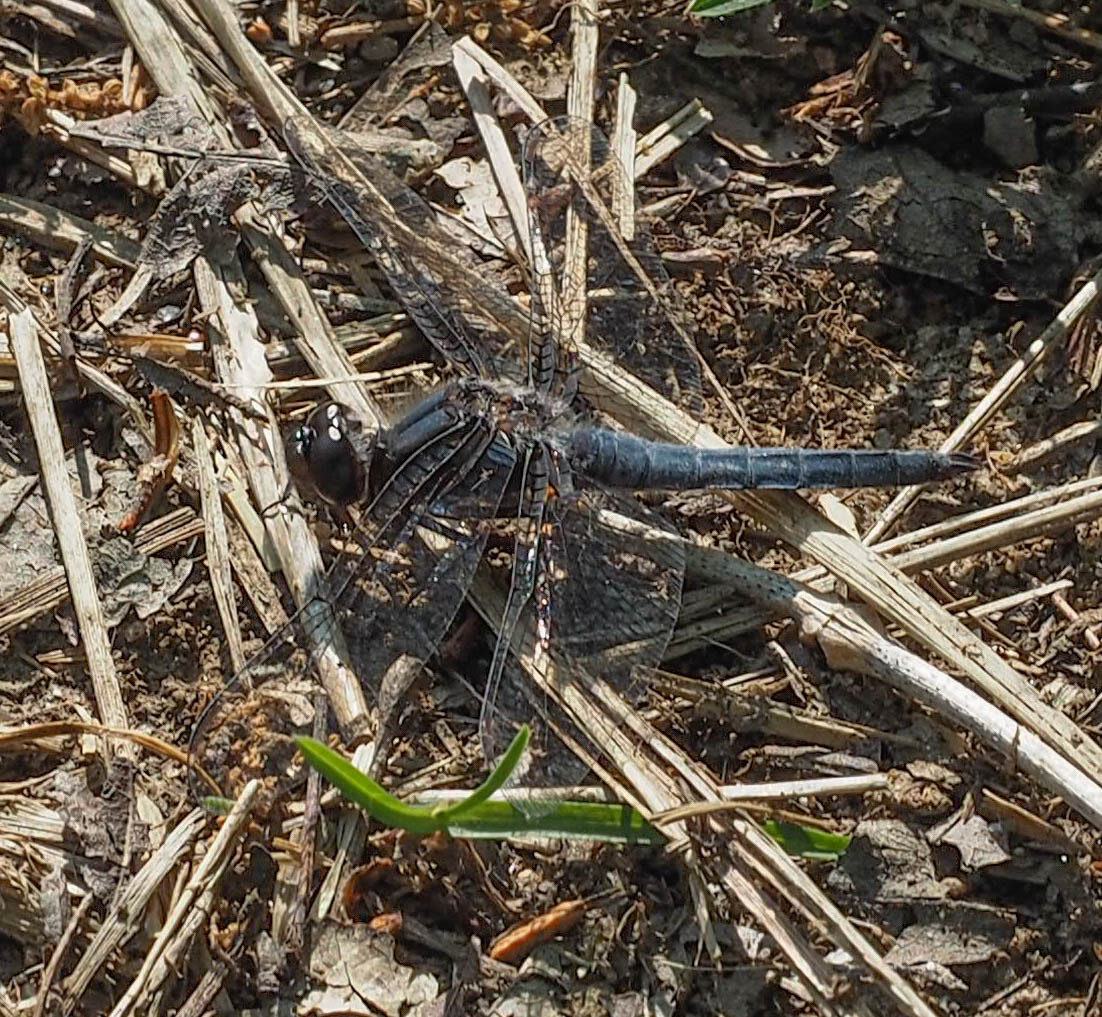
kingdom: Animalia
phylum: Arthropoda
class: Insecta
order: Odonata
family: Libellulidae
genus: Ladona
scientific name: Ladona deplanata
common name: Blue corporal
